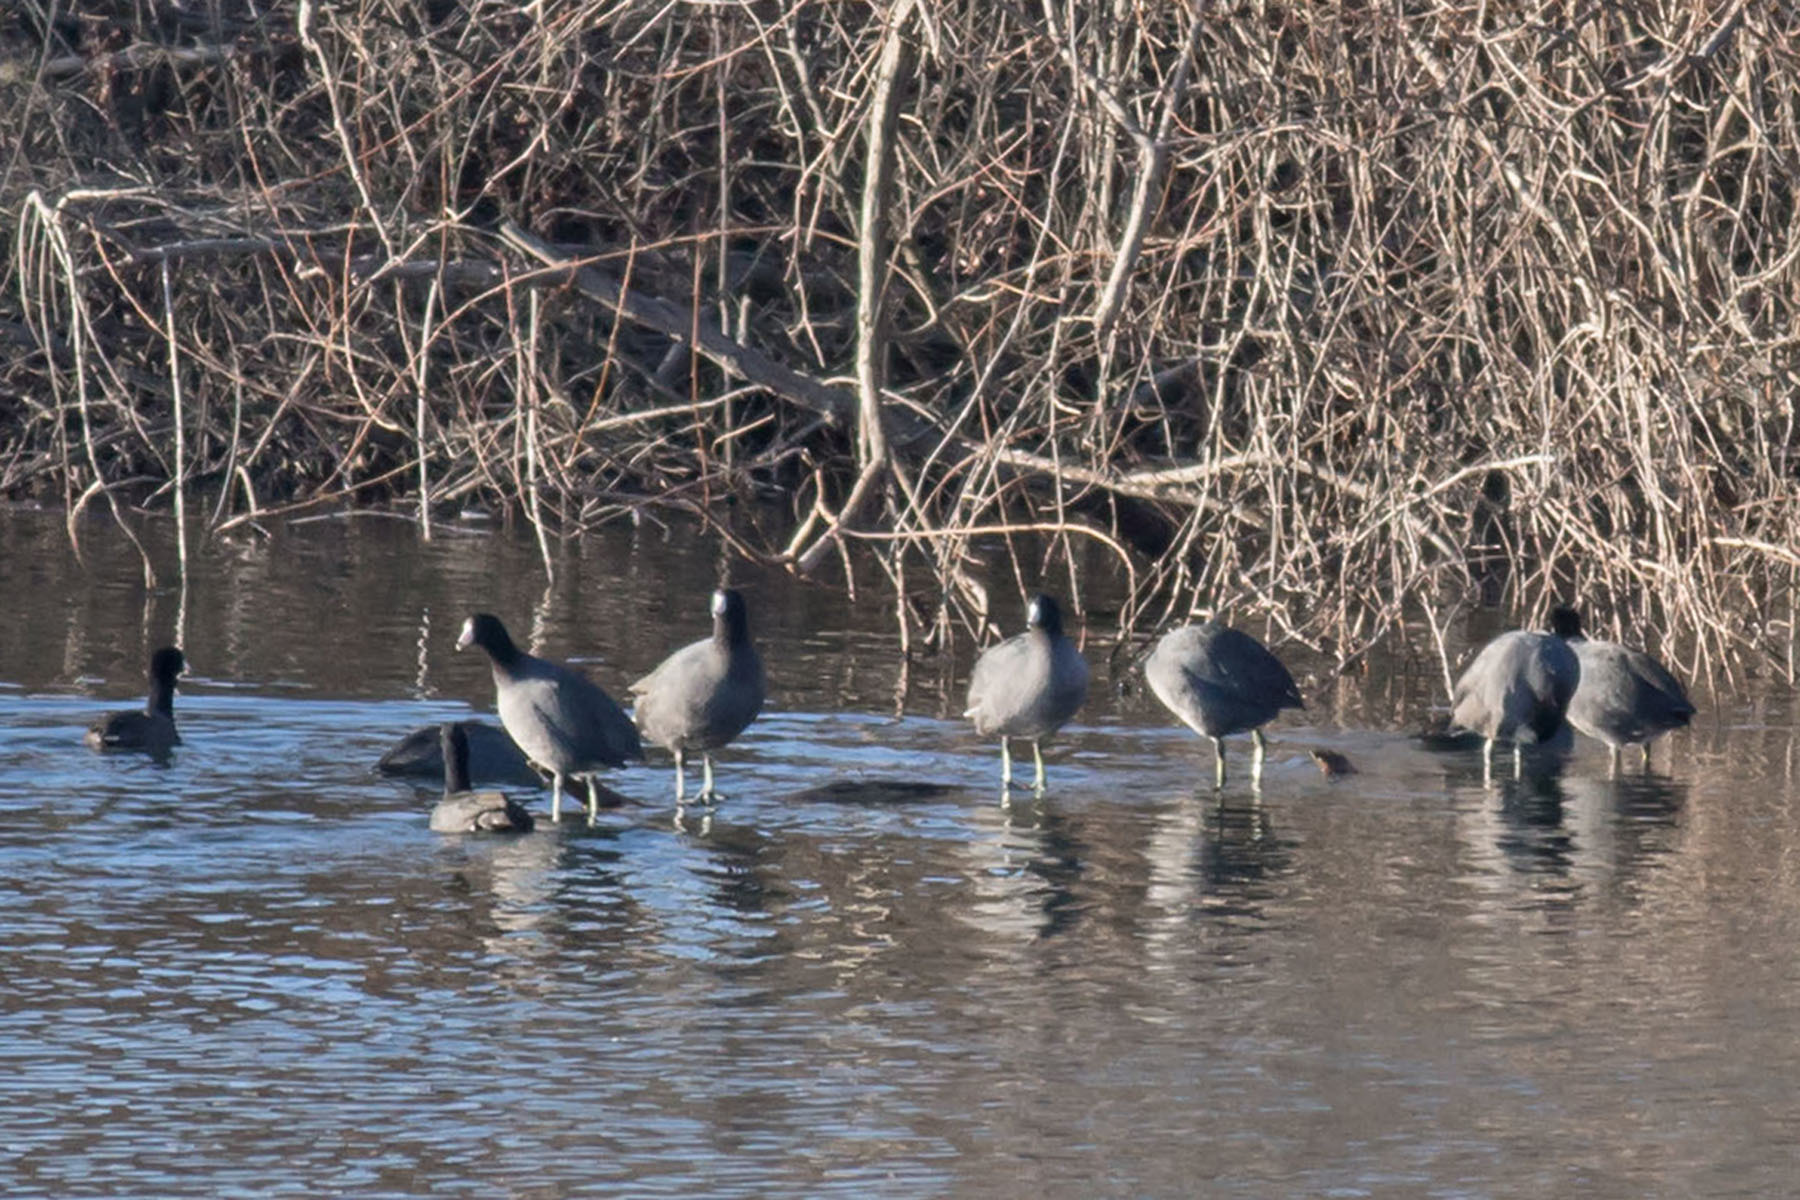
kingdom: Animalia
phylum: Chordata
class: Aves
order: Gruiformes
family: Rallidae
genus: Fulica
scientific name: Fulica americana
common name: American coot
